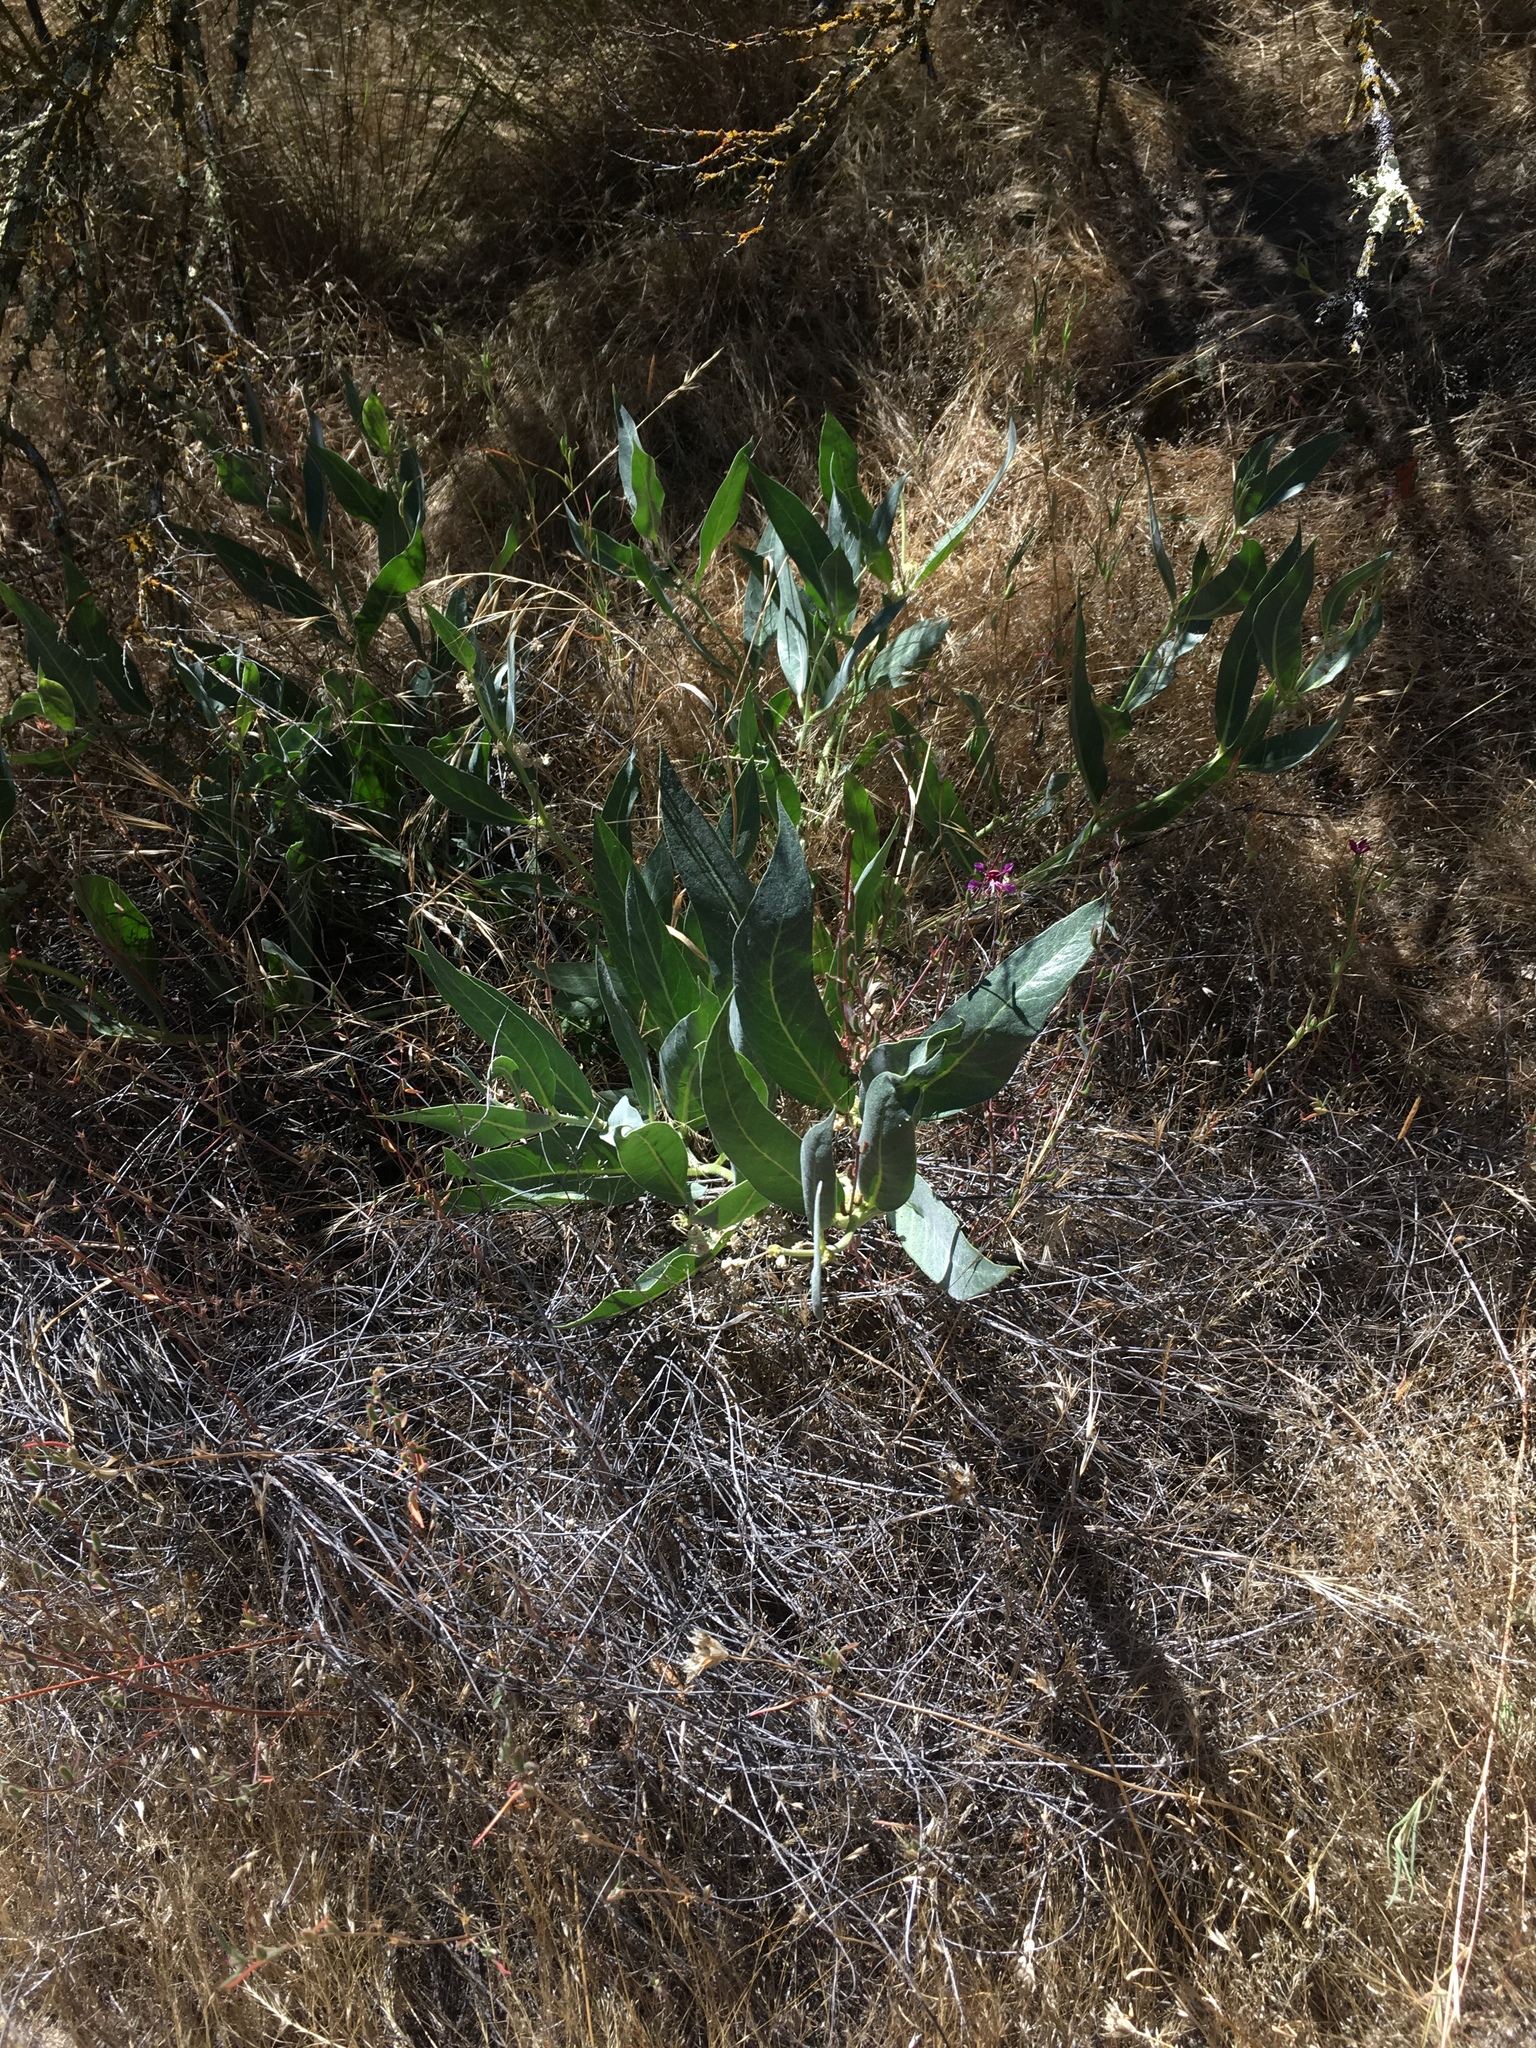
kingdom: Plantae
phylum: Tracheophyta
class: Magnoliopsida
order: Gentianales
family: Apocynaceae
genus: Asclepias
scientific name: Asclepias vestita
